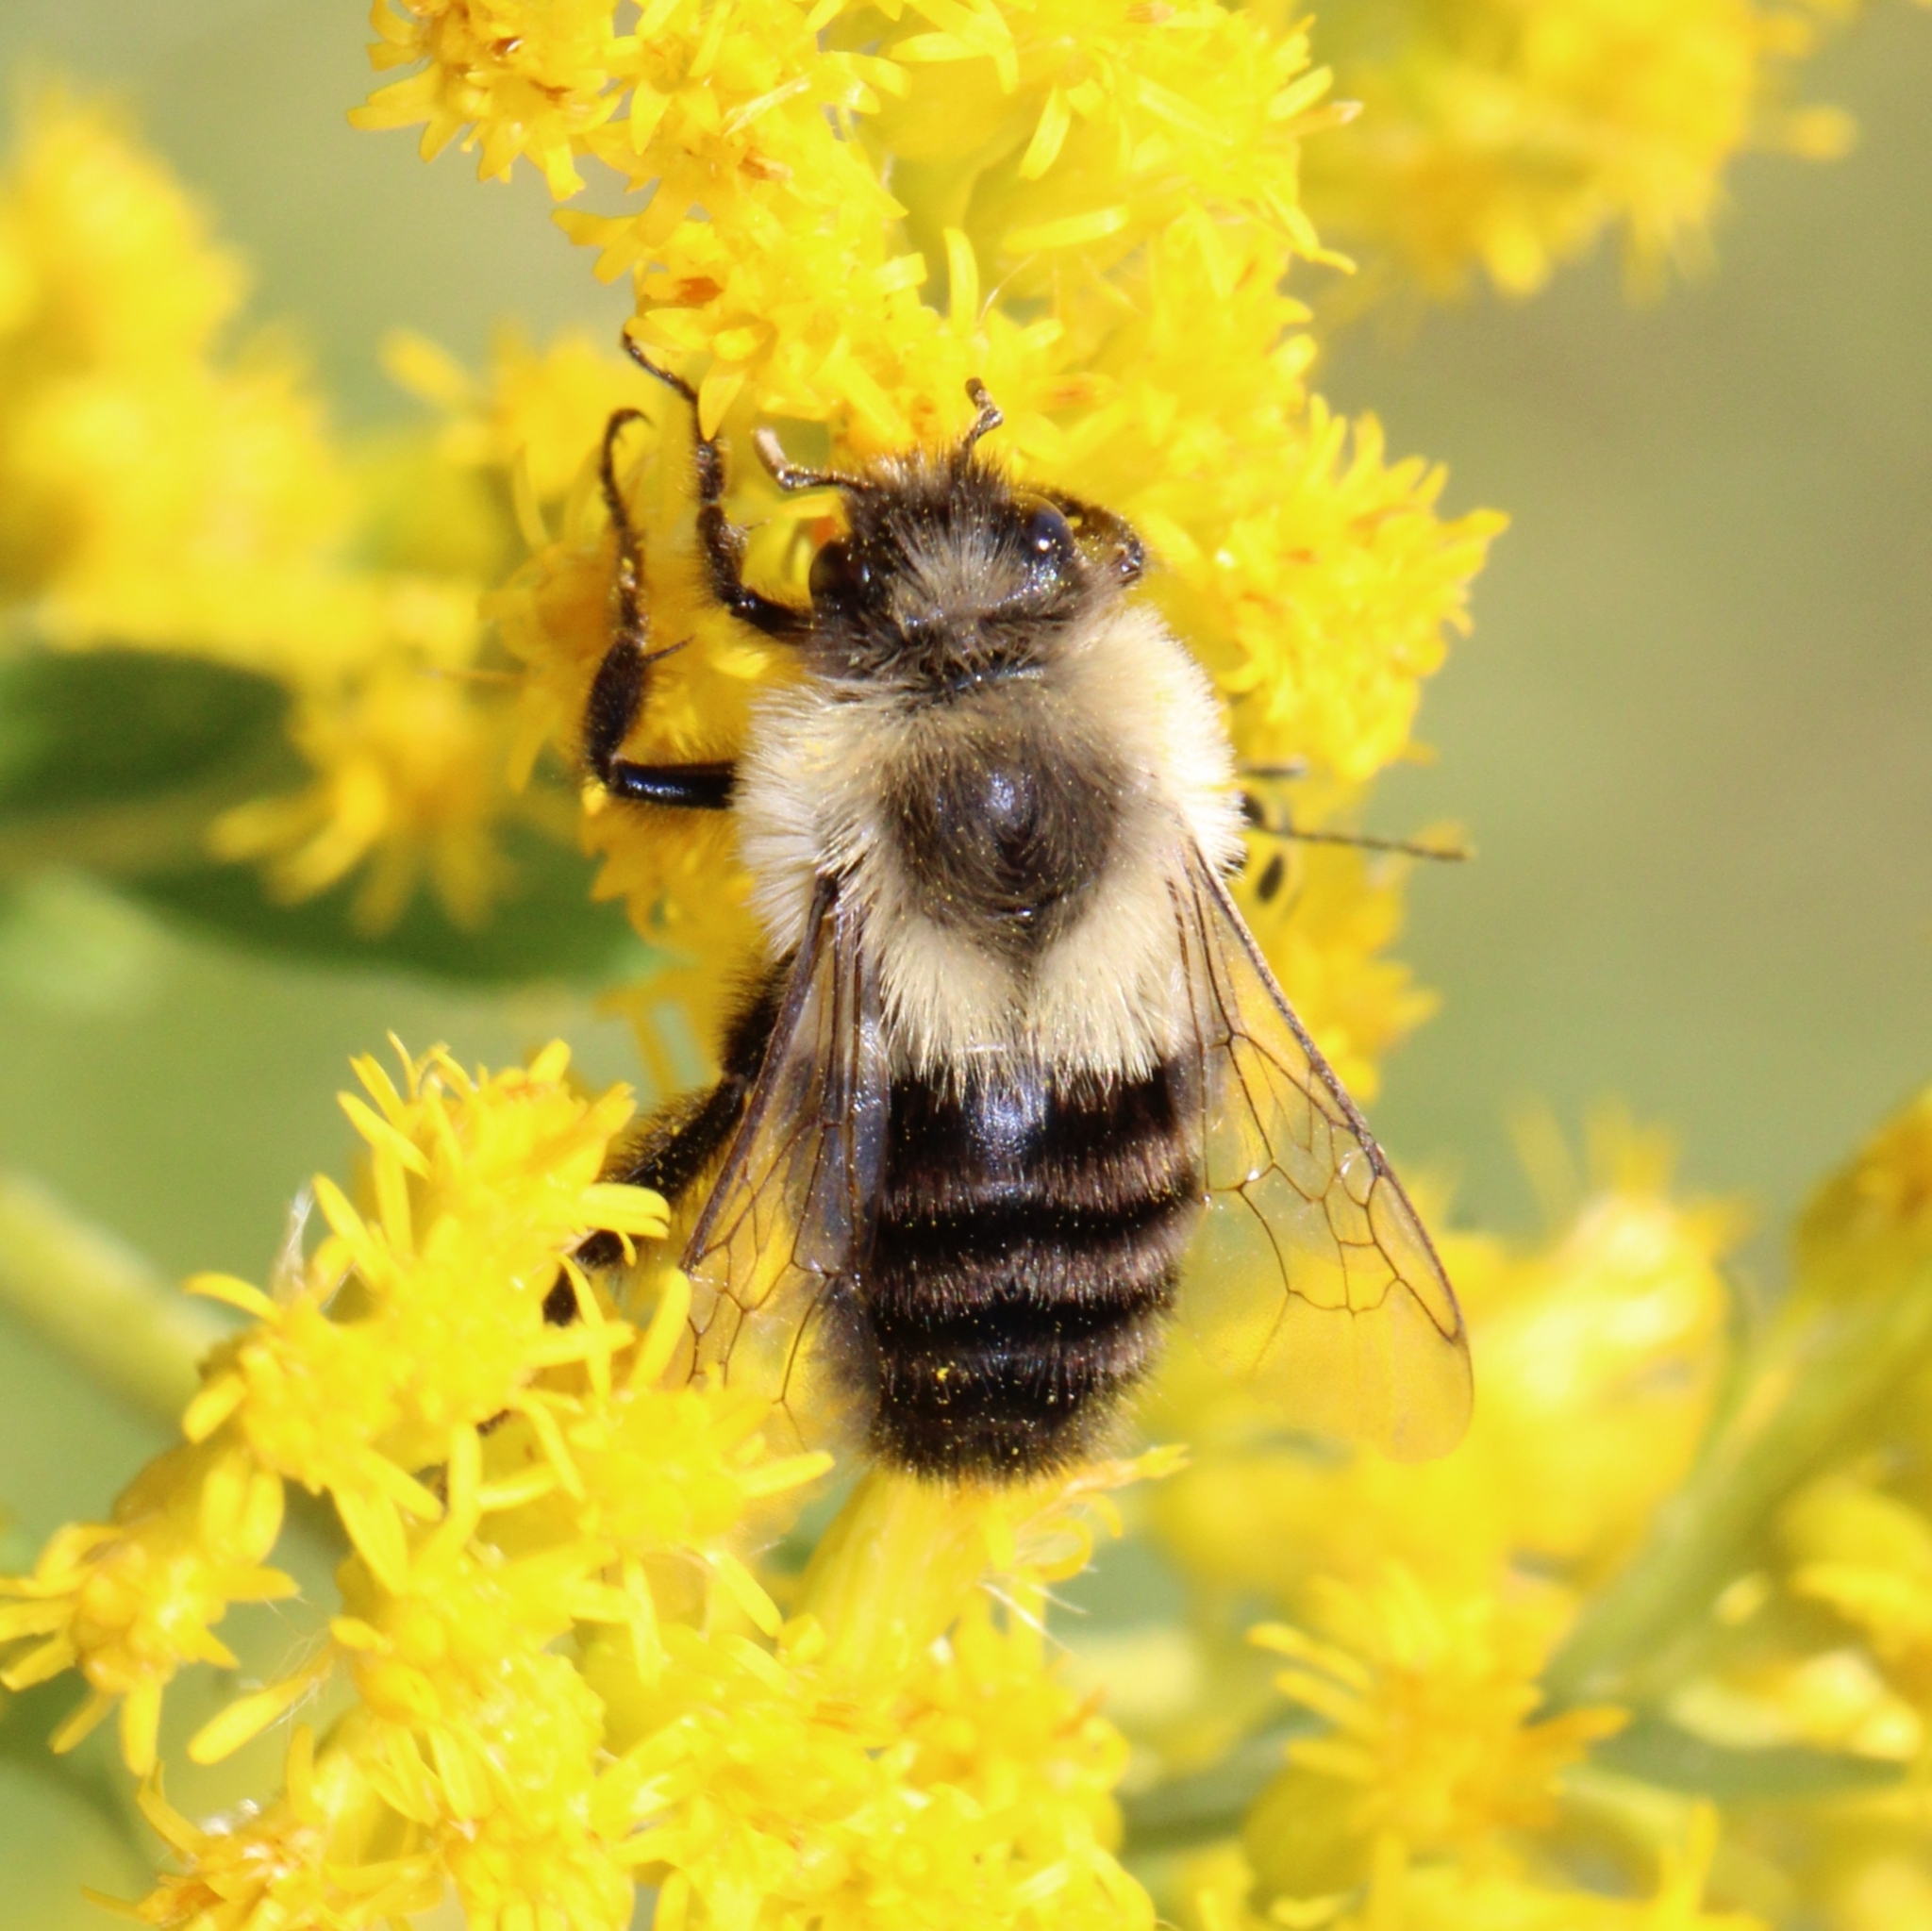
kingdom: Animalia
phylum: Arthropoda
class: Insecta
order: Hymenoptera
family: Apidae
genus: Bombus
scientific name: Bombus impatiens
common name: Common eastern bumble bee
